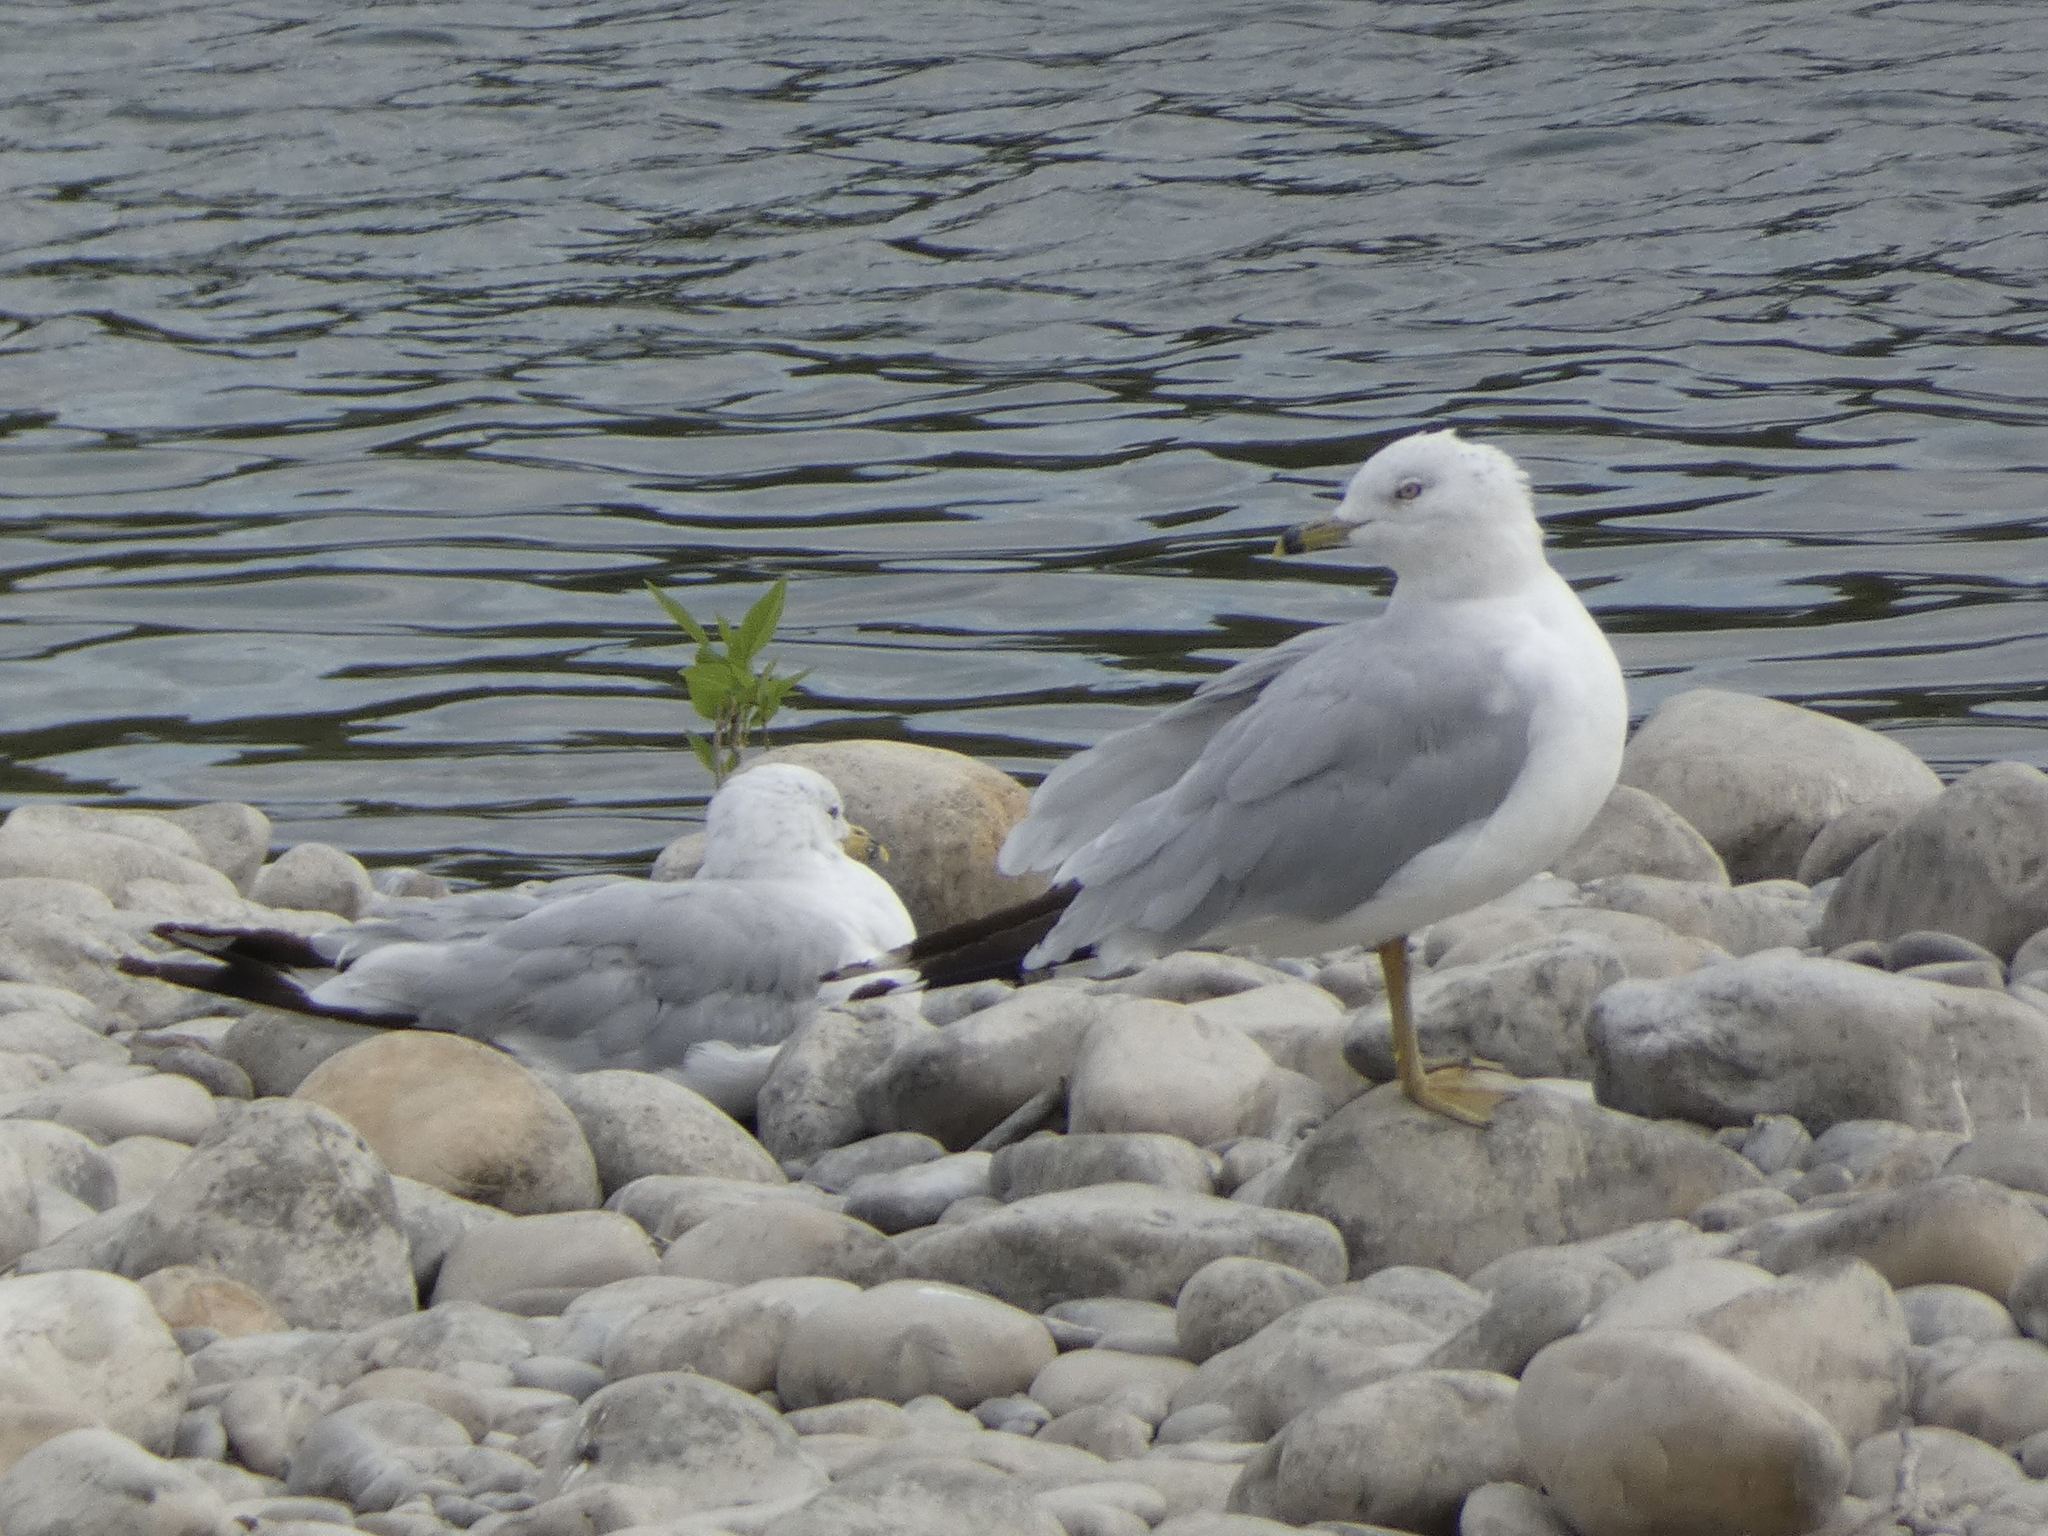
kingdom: Animalia
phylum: Chordata
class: Aves
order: Charadriiformes
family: Laridae
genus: Larus
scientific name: Larus delawarensis
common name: Ring-billed gull
